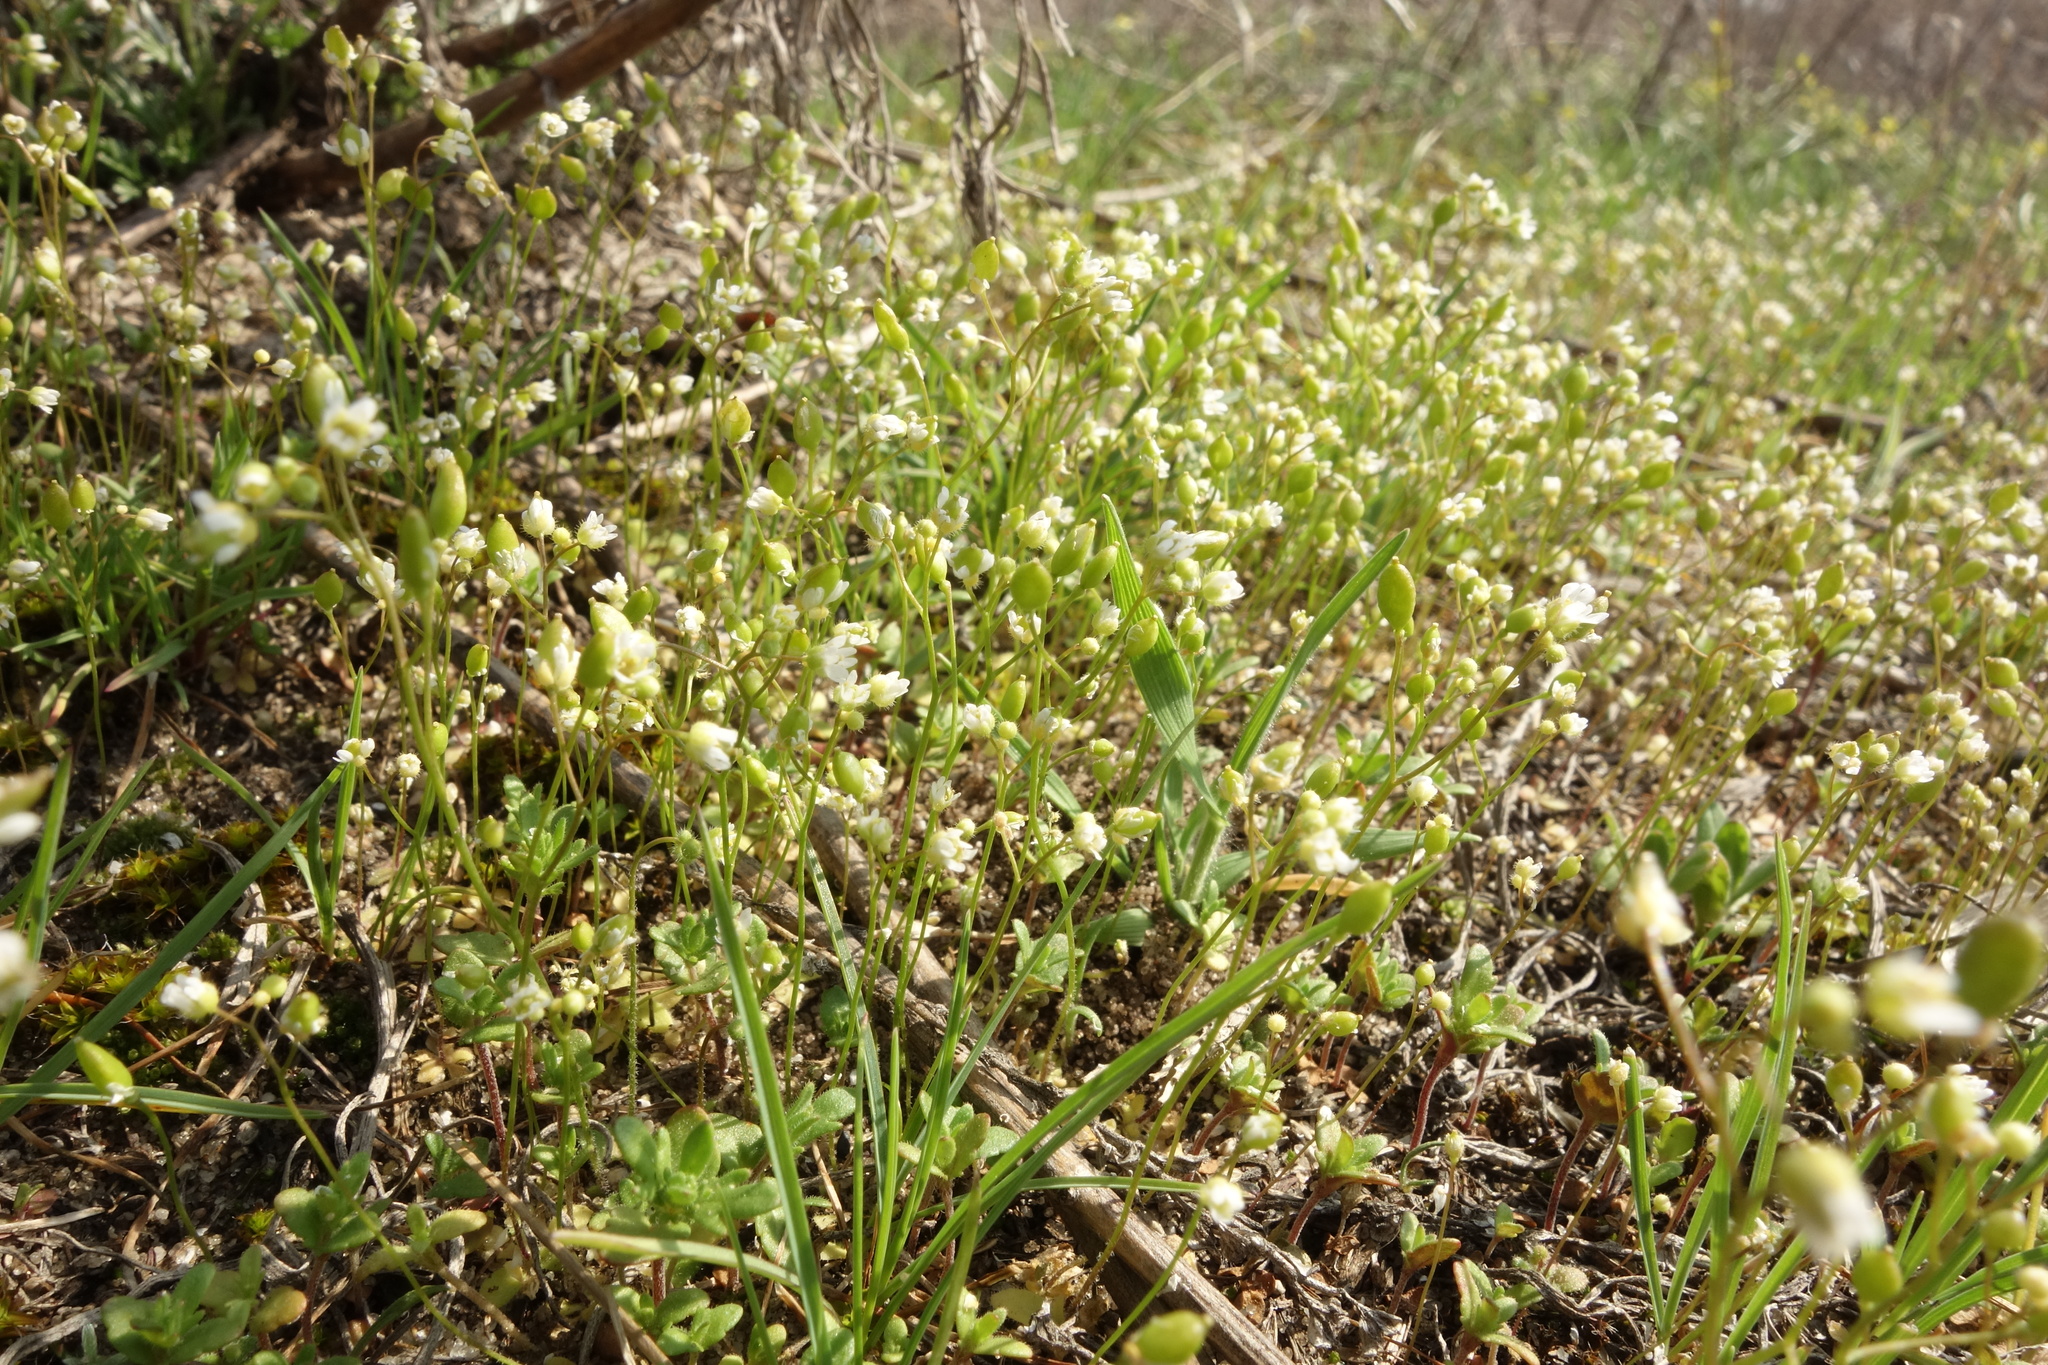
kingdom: Plantae
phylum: Tracheophyta
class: Magnoliopsida
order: Brassicales
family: Brassicaceae
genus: Draba
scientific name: Draba verna
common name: Spring draba
